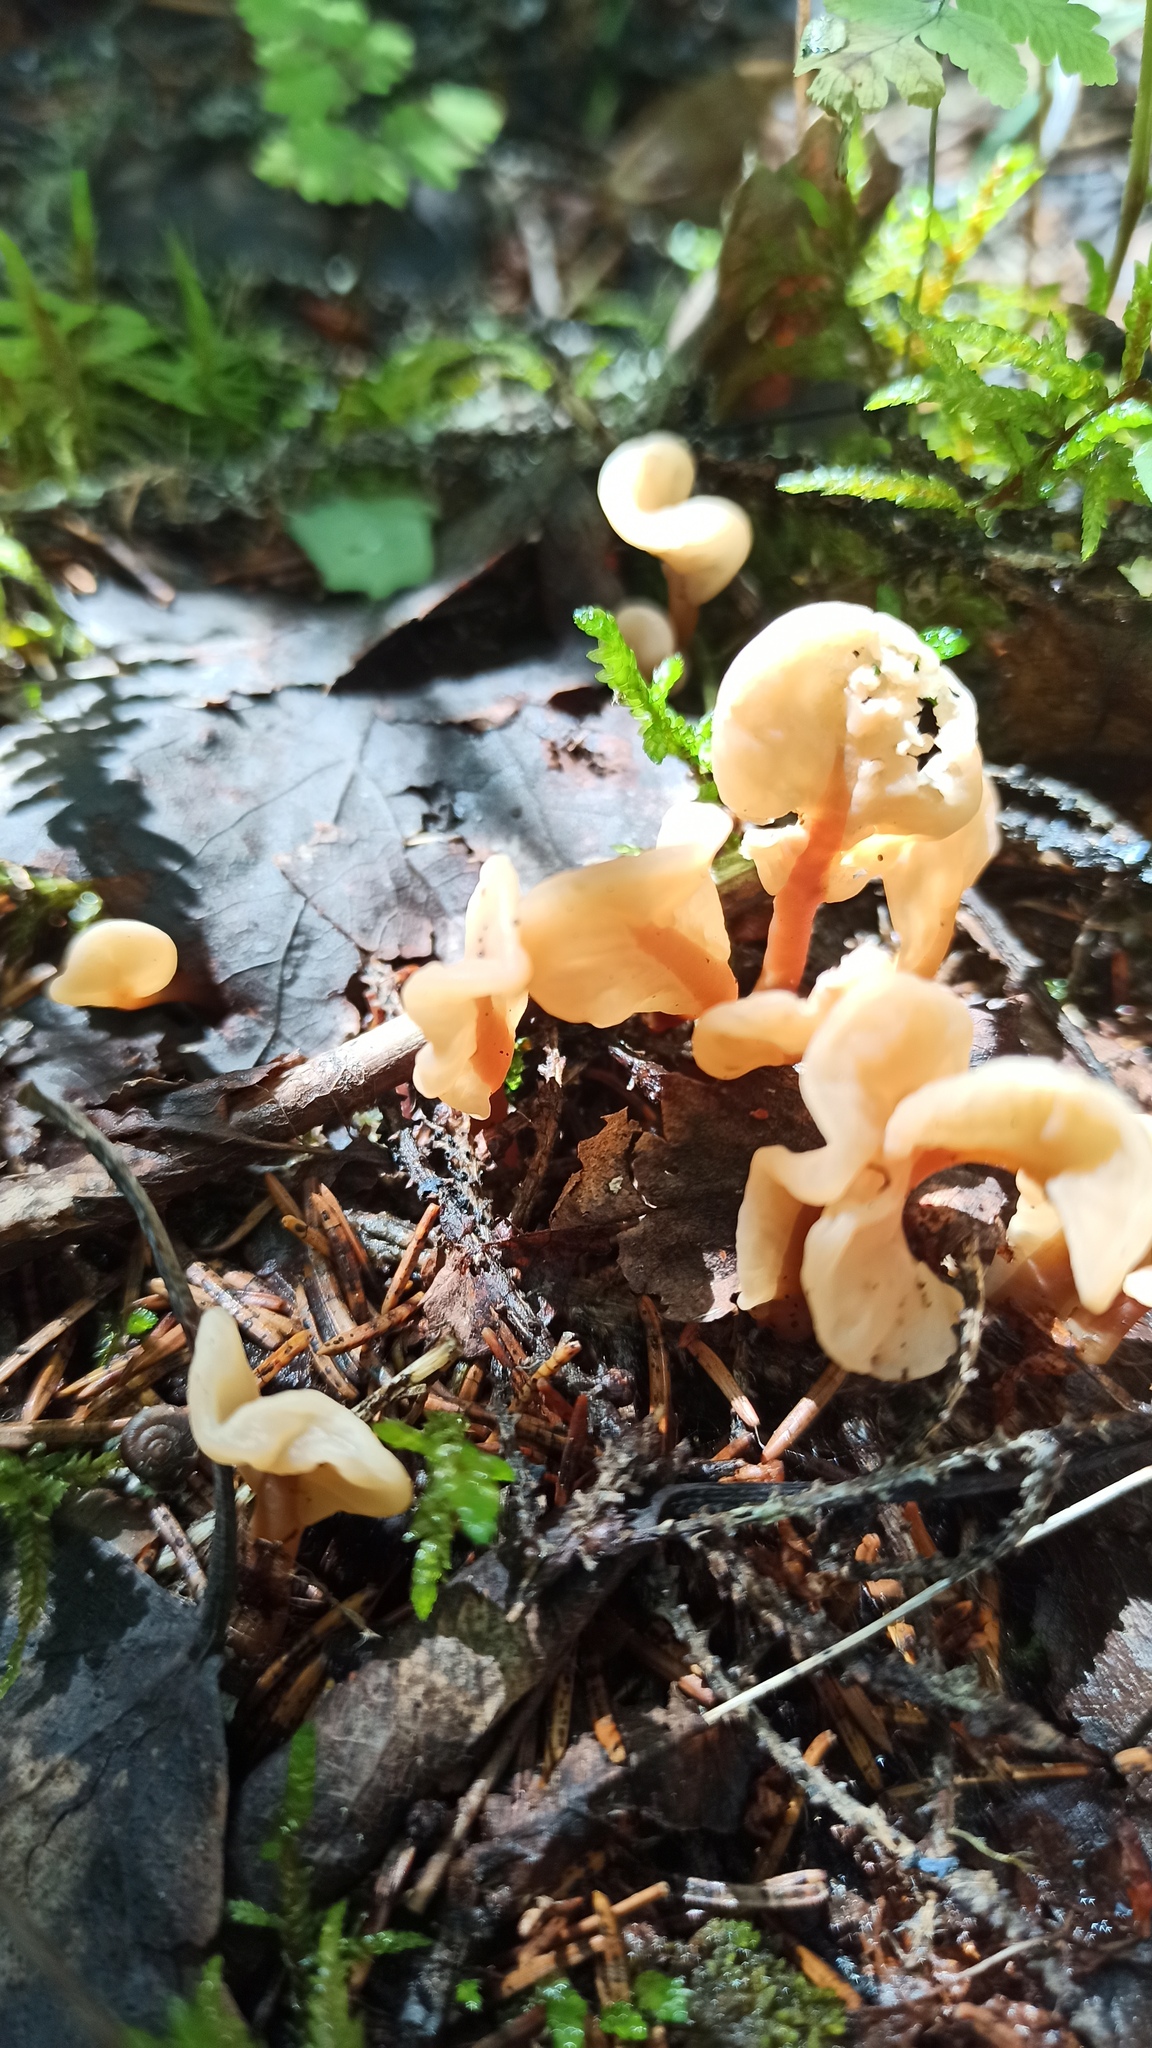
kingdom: Fungi
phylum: Ascomycota
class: Leotiomycetes
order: Rhytismatales
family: Cudoniaceae
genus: Spathularia
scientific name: Spathularia rufa
